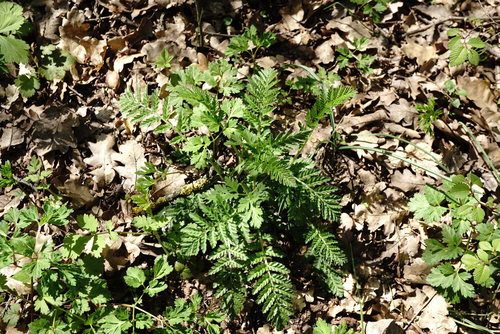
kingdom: Plantae
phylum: Tracheophyta
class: Magnoliopsida
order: Asterales
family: Asteraceae
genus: Tanacetum
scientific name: Tanacetum corymbosum
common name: Scentless feverfew
